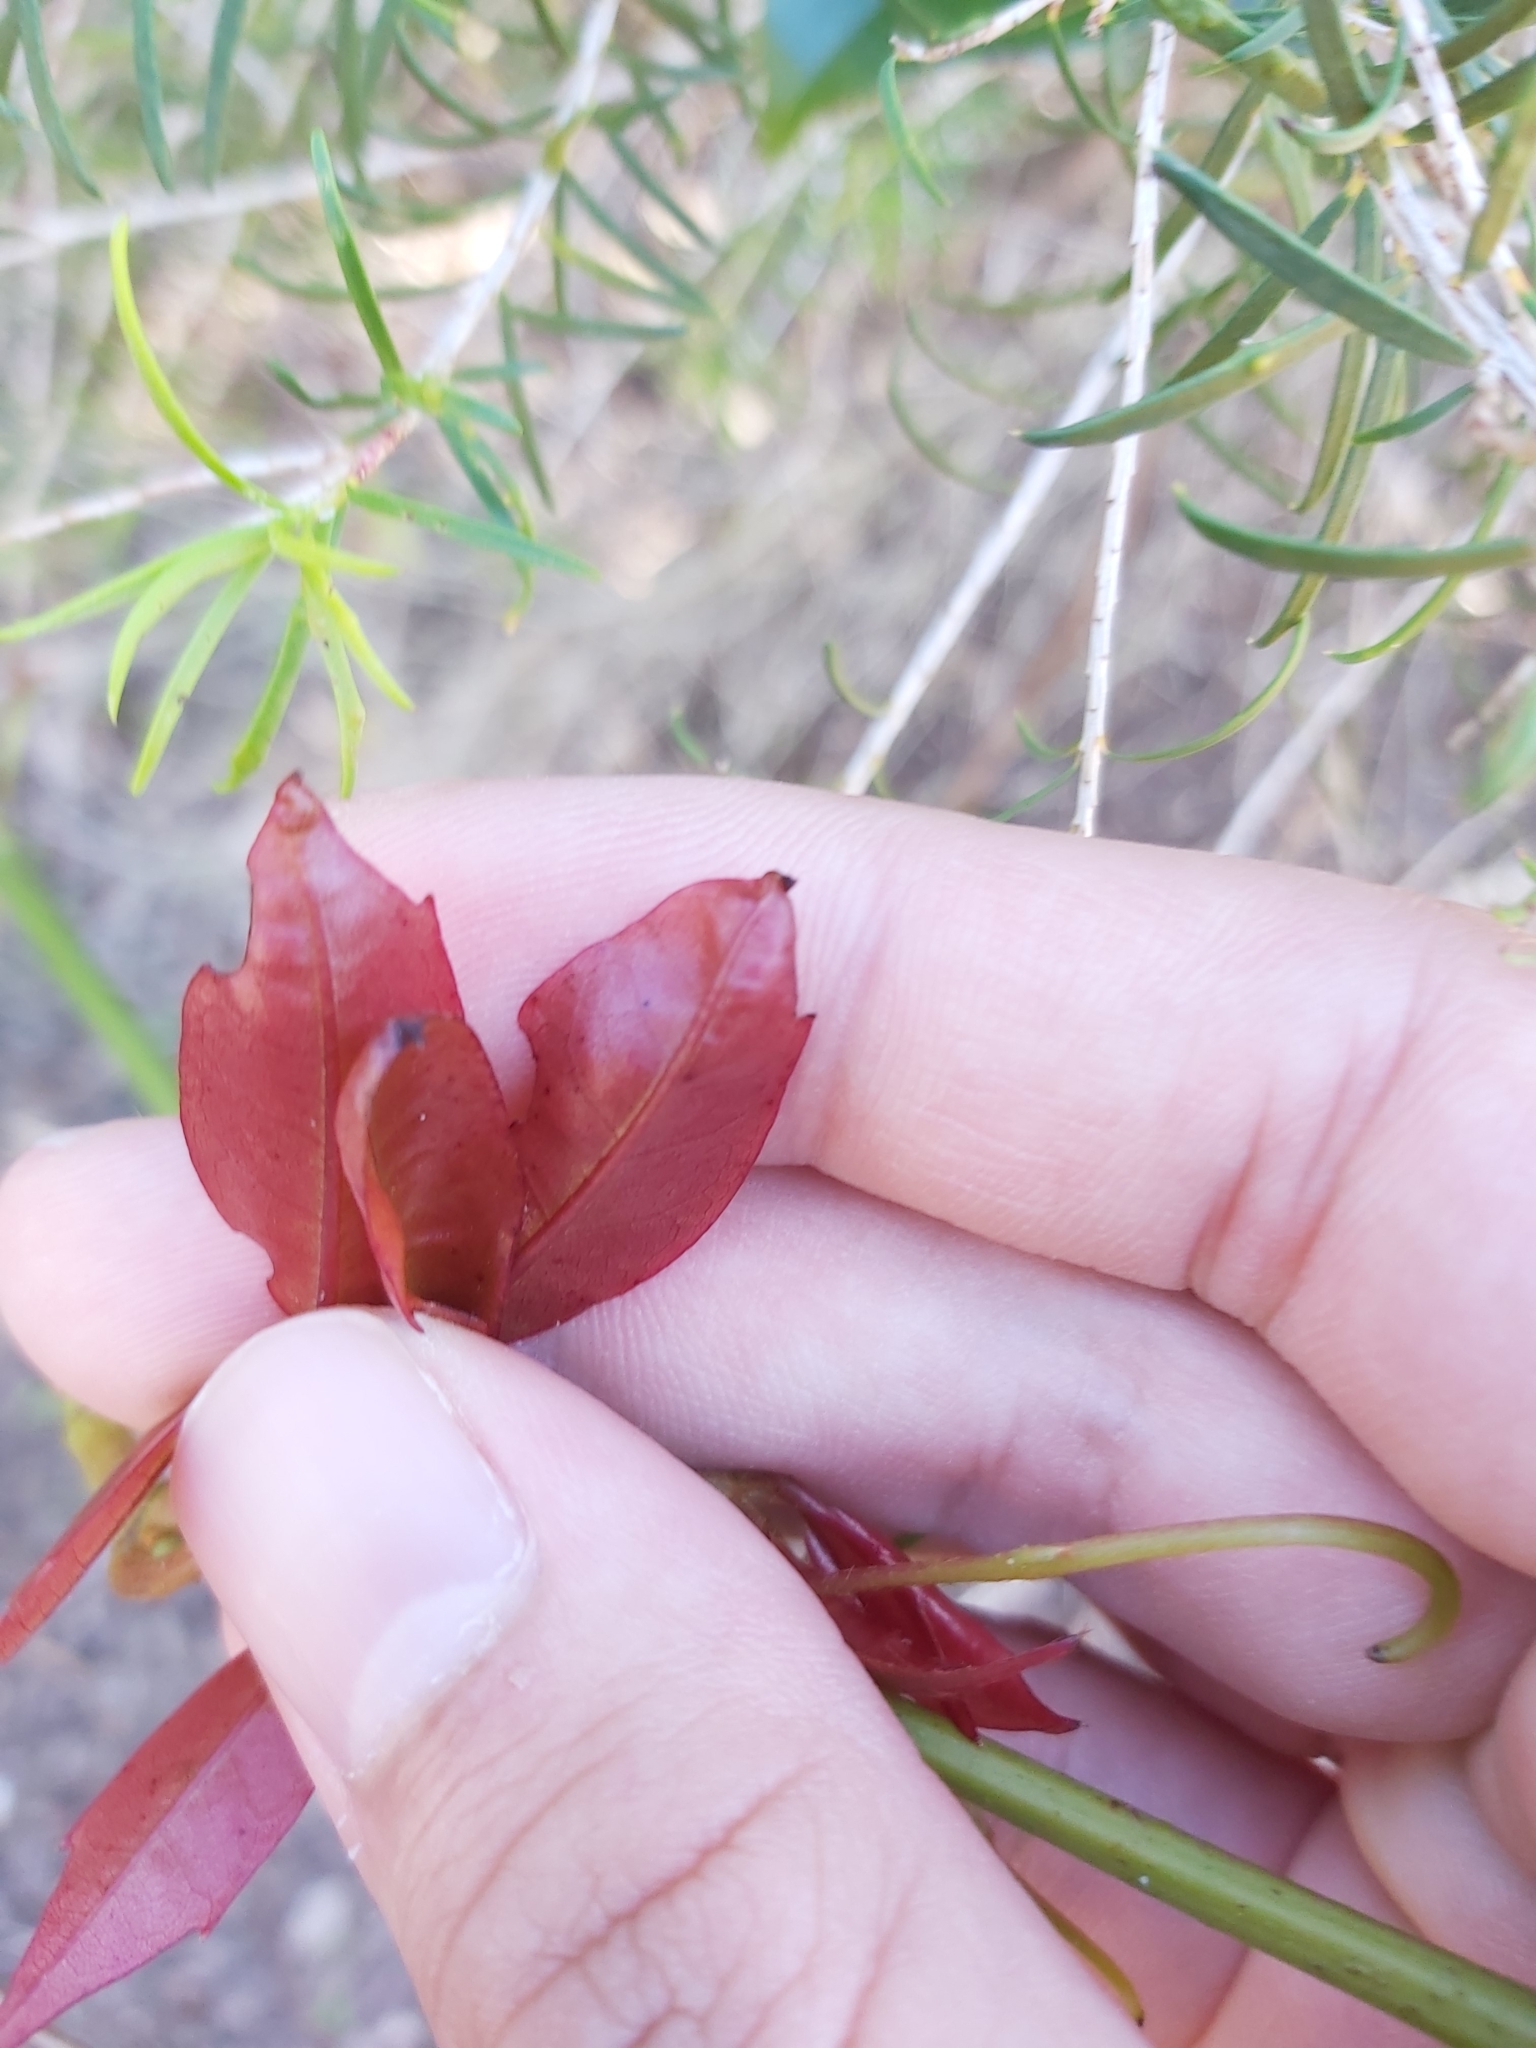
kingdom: Plantae
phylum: Tracheophyta
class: Magnoliopsida
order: Vitales
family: Vitaceae
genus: Nothocissus
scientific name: Nothocissus hypoglauca
